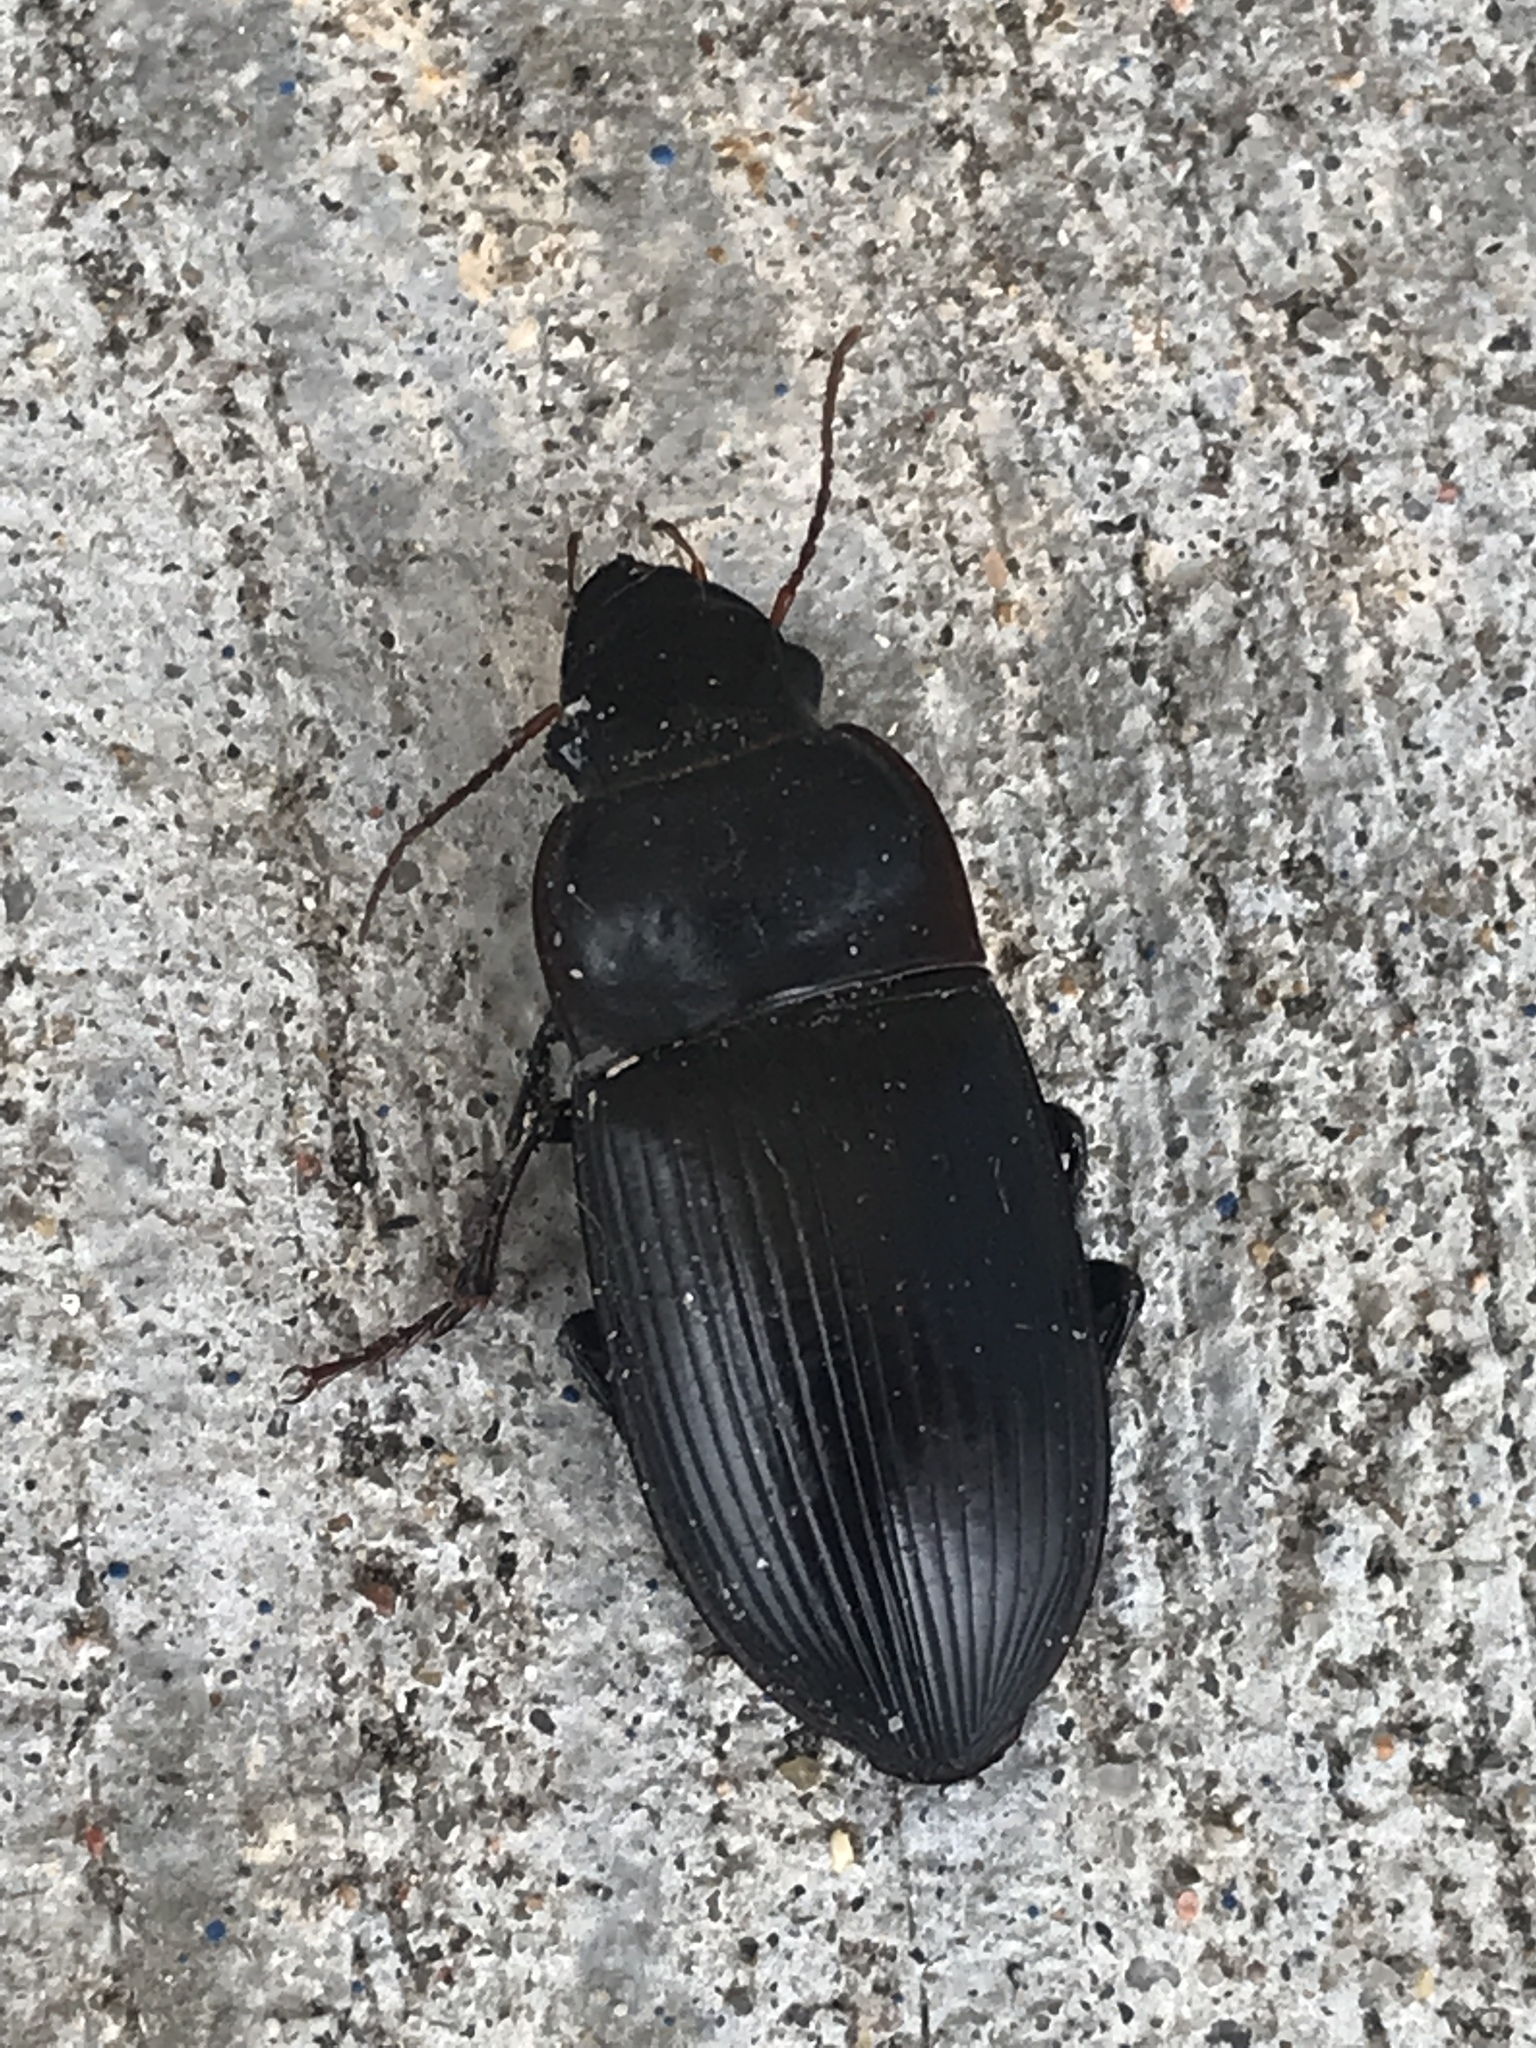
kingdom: Animalia
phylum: Arthropoda
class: Insecta
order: Coleoptera
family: Carabidae
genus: Harpalus
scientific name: Harpalus caliginosus
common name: Murky ground beetle
